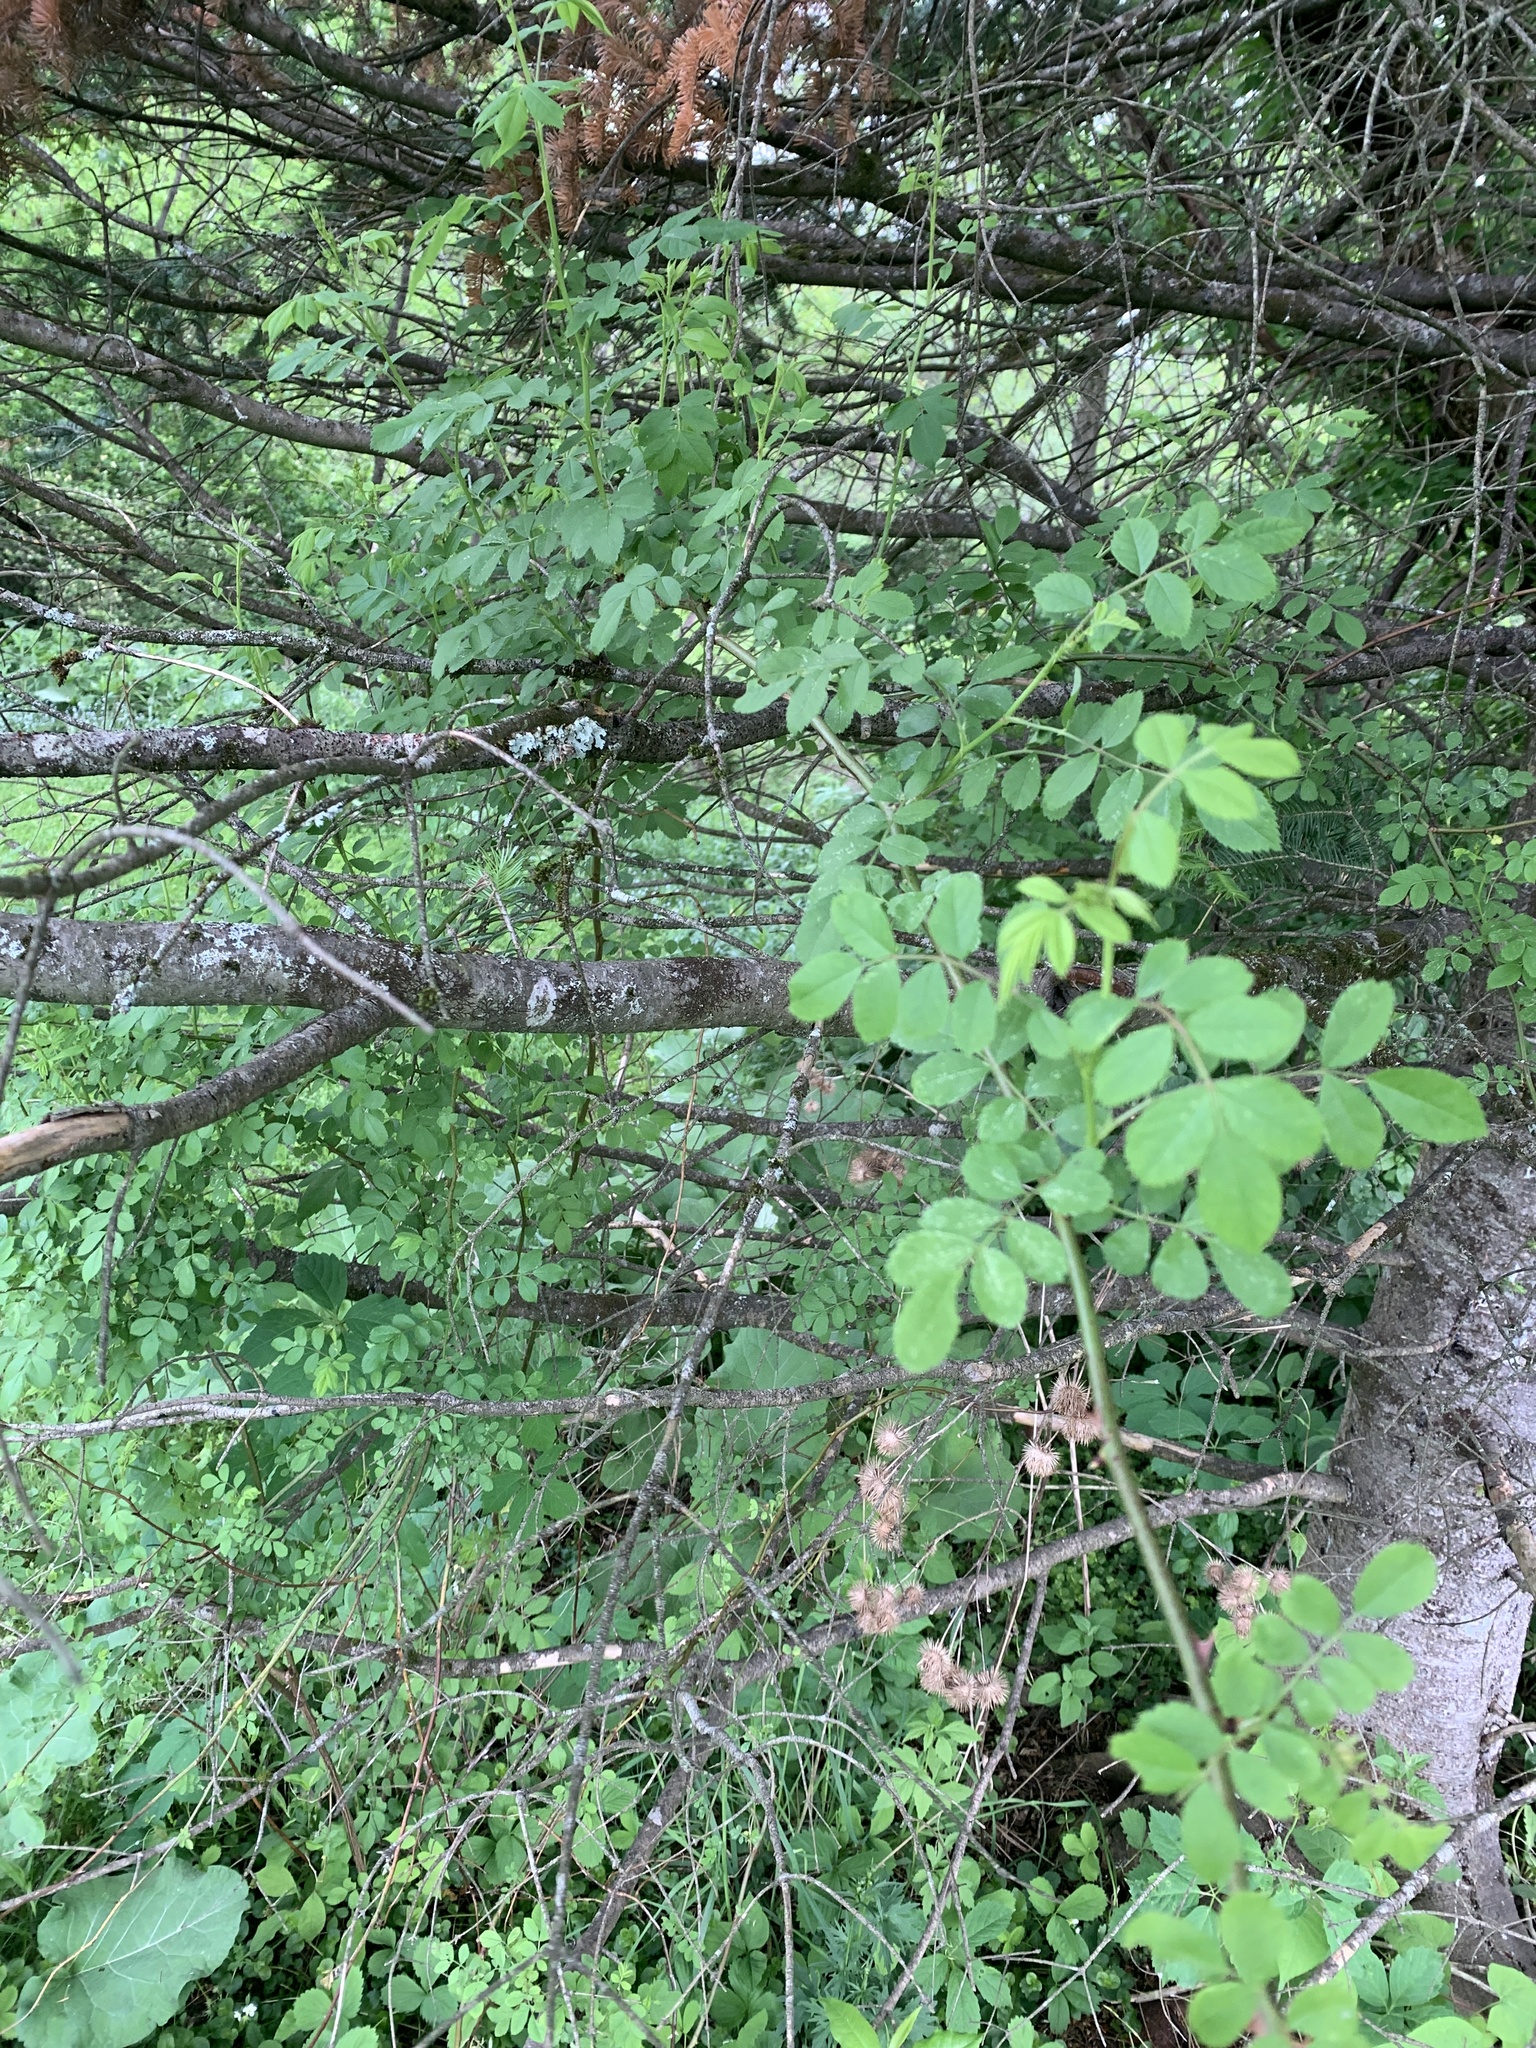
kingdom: Plantae
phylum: Tracheophyta
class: Magnoliopsida
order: Rosales
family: Rosaceae
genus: Rosa
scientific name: Rosa multiflora
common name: Multiflora rose
